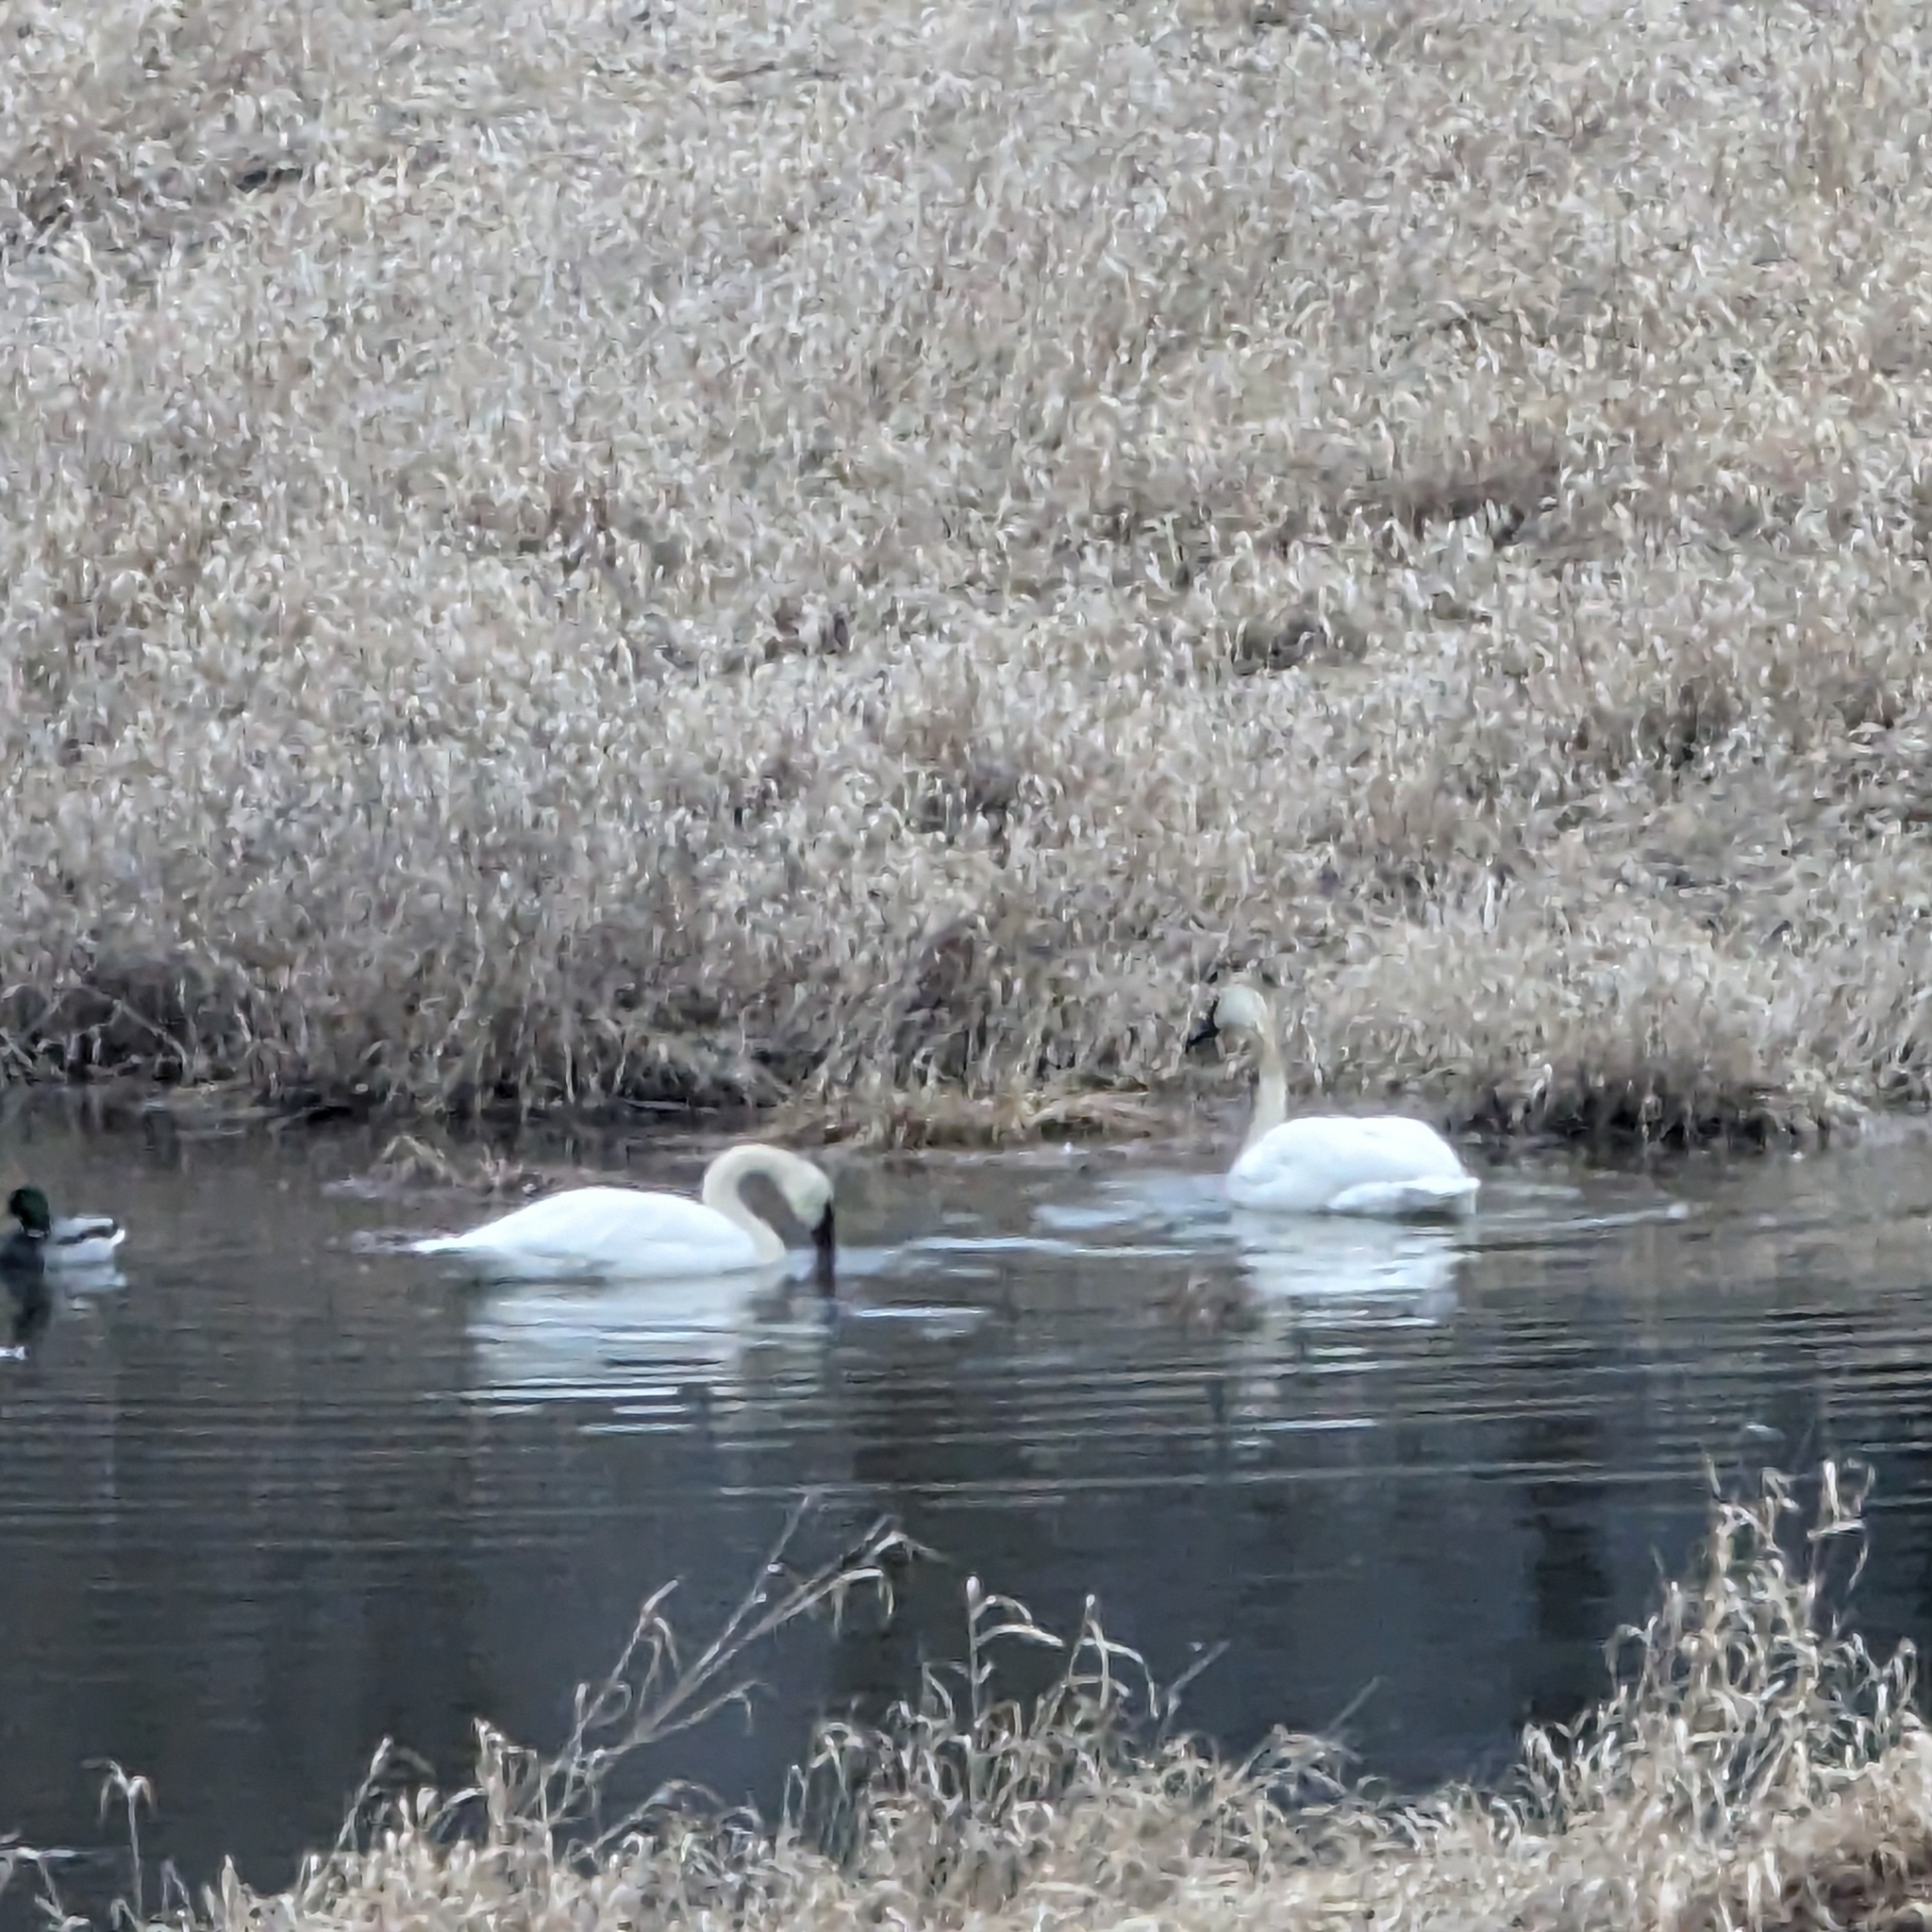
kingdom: Animalia
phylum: Chordata
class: Aves
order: Anseriformes
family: Anatidae
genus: Cygnus
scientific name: Cygnus buccinator
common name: Trumpeter swan
